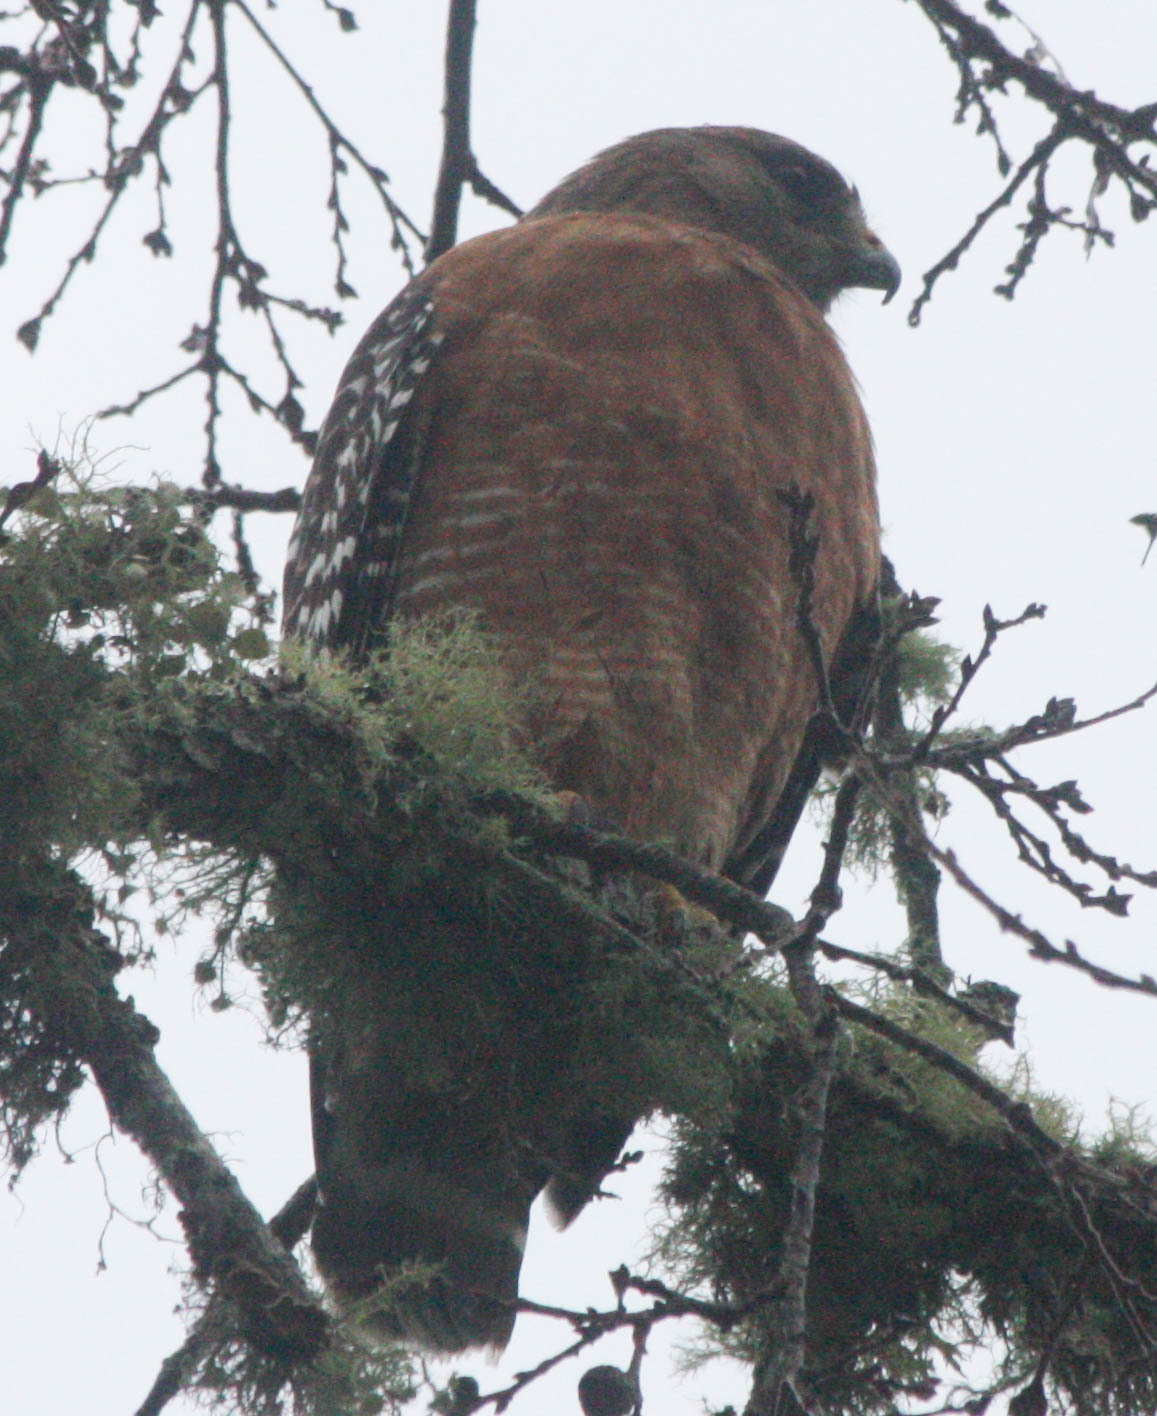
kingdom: Animalia
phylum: Chordata
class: Aves
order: Accipitriformes
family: Accipitridae
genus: Buteo
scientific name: Buteo lineatus
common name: Red-shouldered hawk
